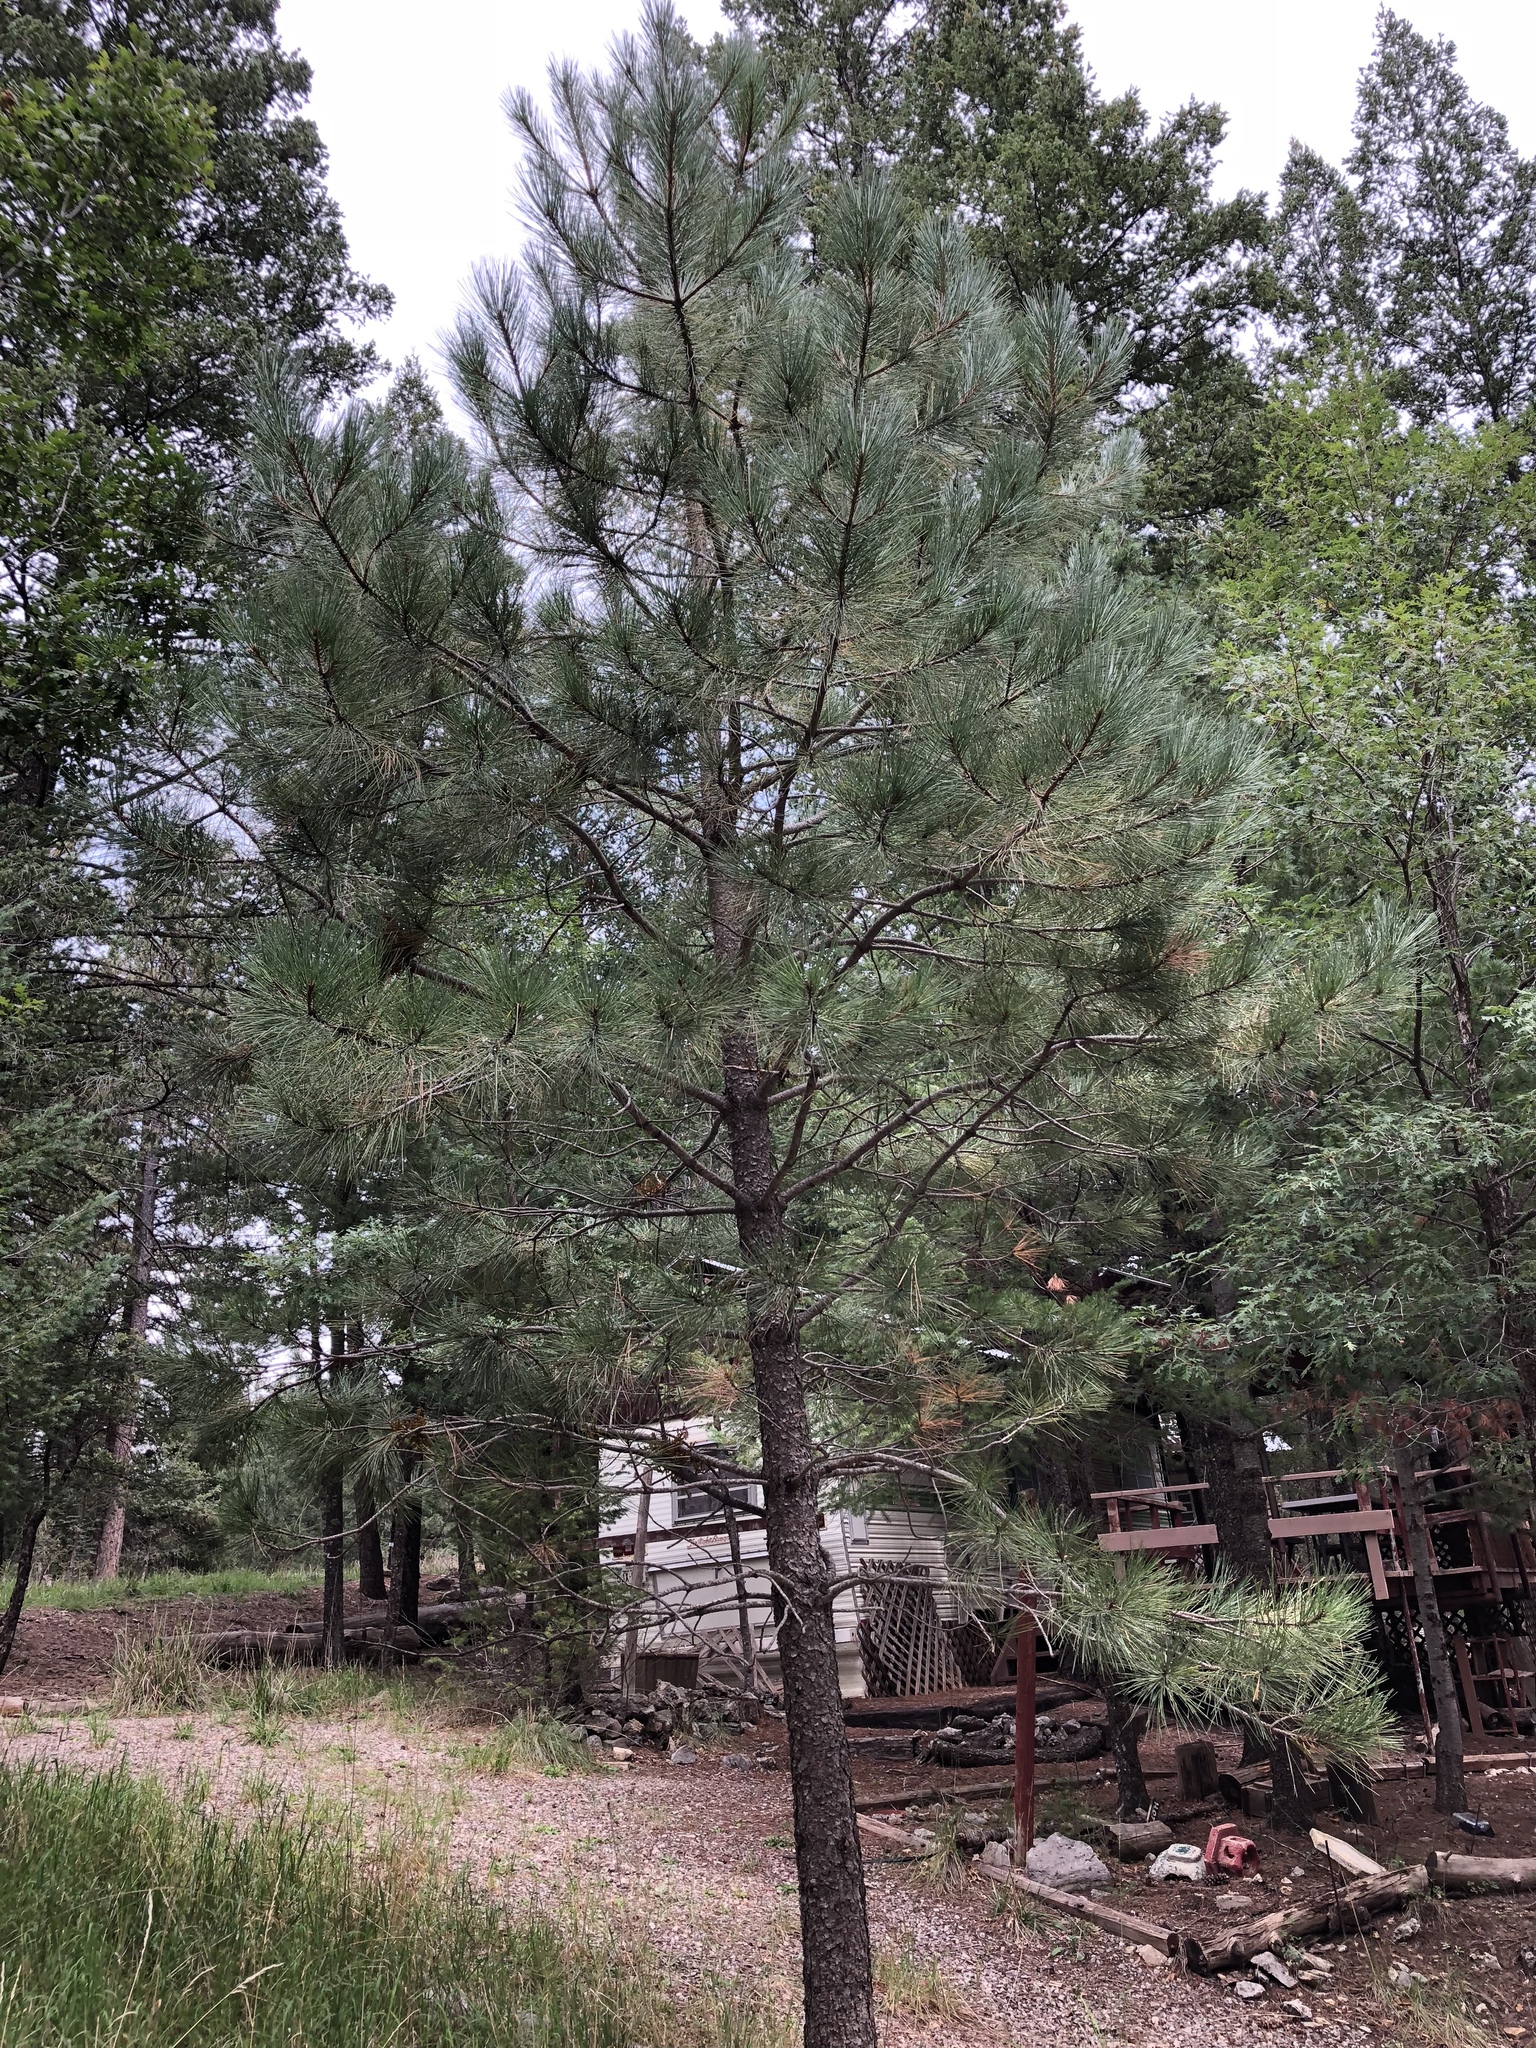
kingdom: Plantae
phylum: Tracheophyta
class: Pinopsida
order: Pinales
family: Pinaceae
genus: Pinus
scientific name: Pinus ponderosa
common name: Western yellow-pine
